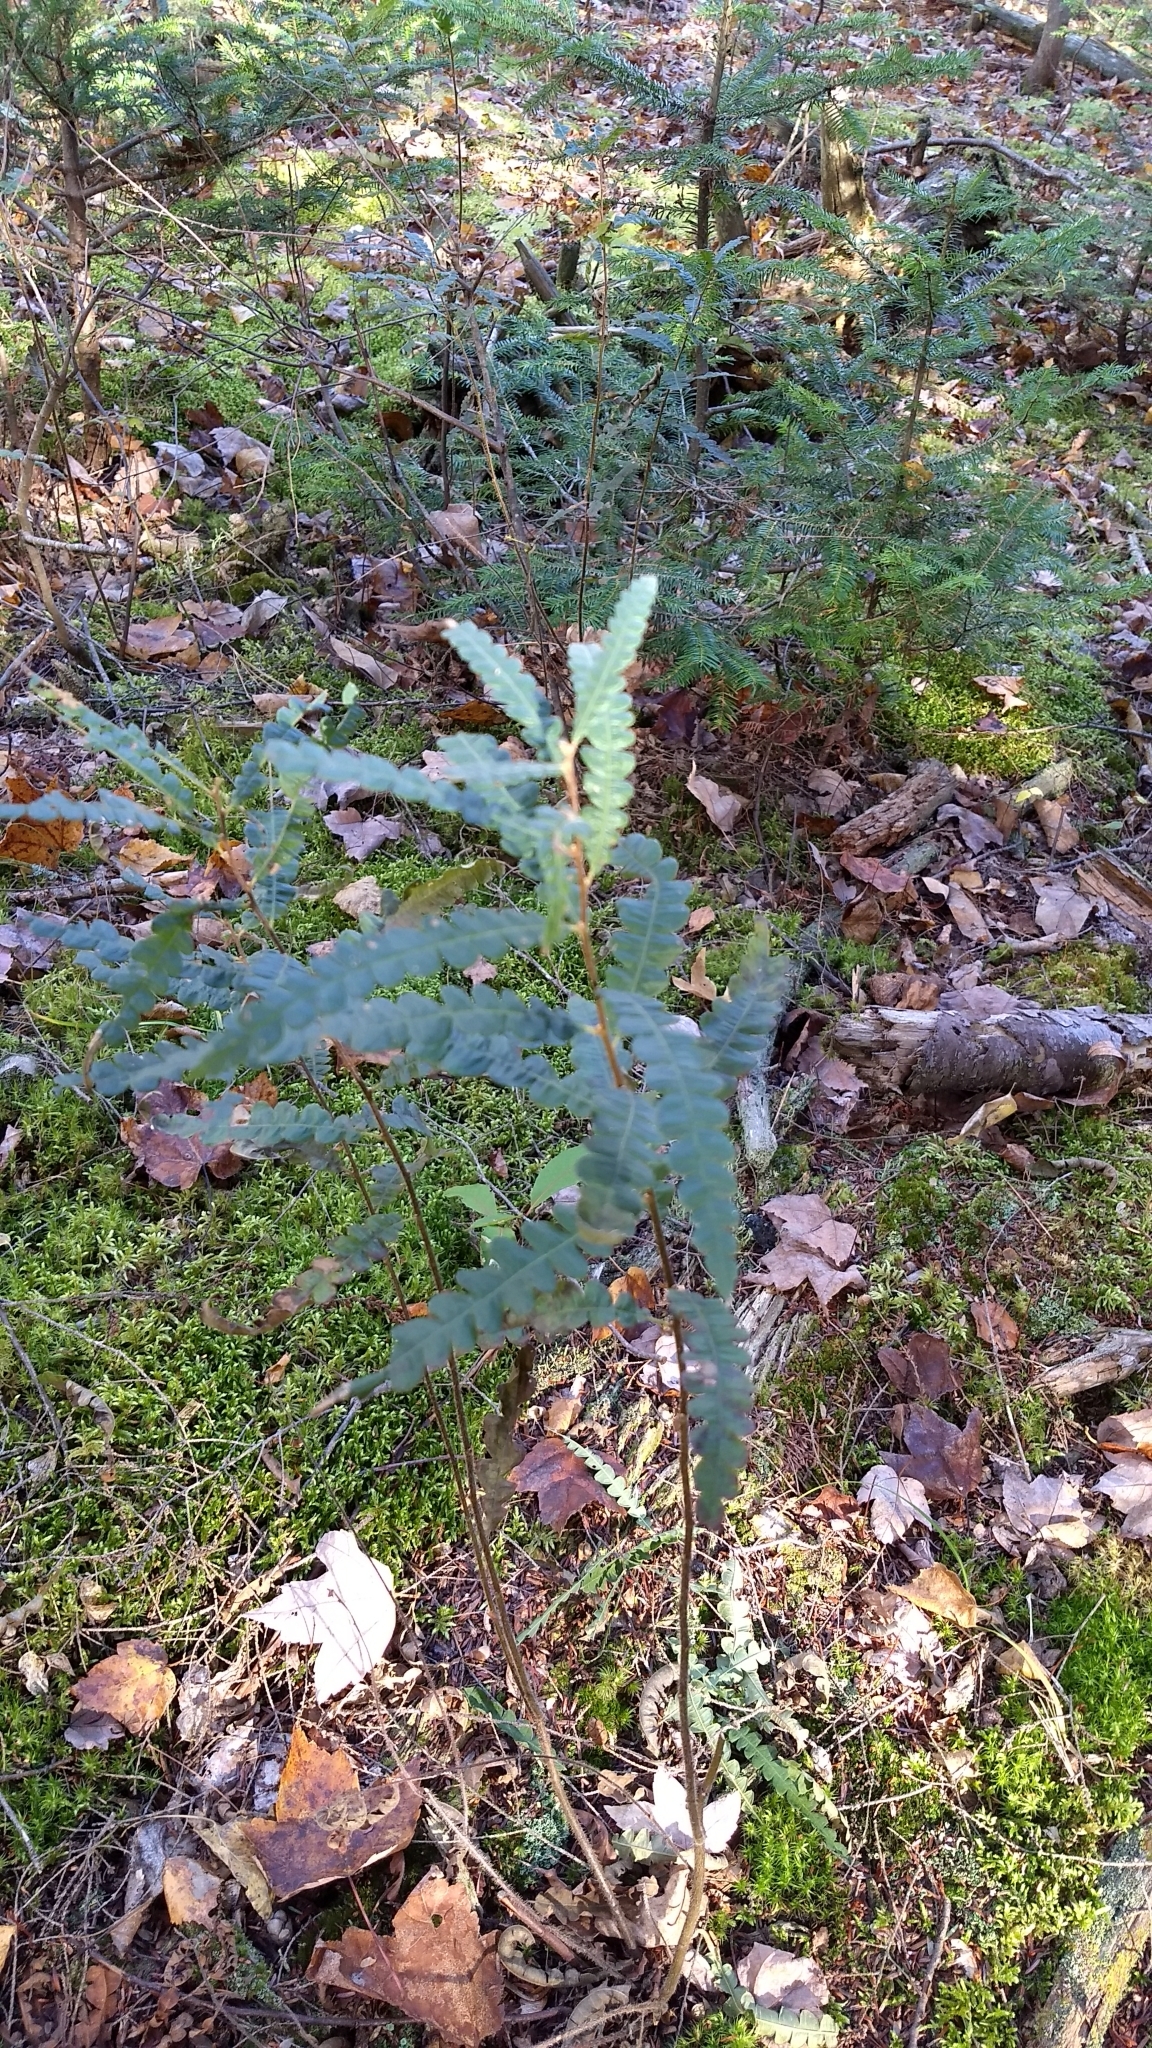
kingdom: Plantae
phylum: Tracheophyta
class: Magnoliopsida
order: Fagales
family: Myricaceae
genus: Comptonia
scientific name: Comptonia peregrina
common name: Sweet-fern
